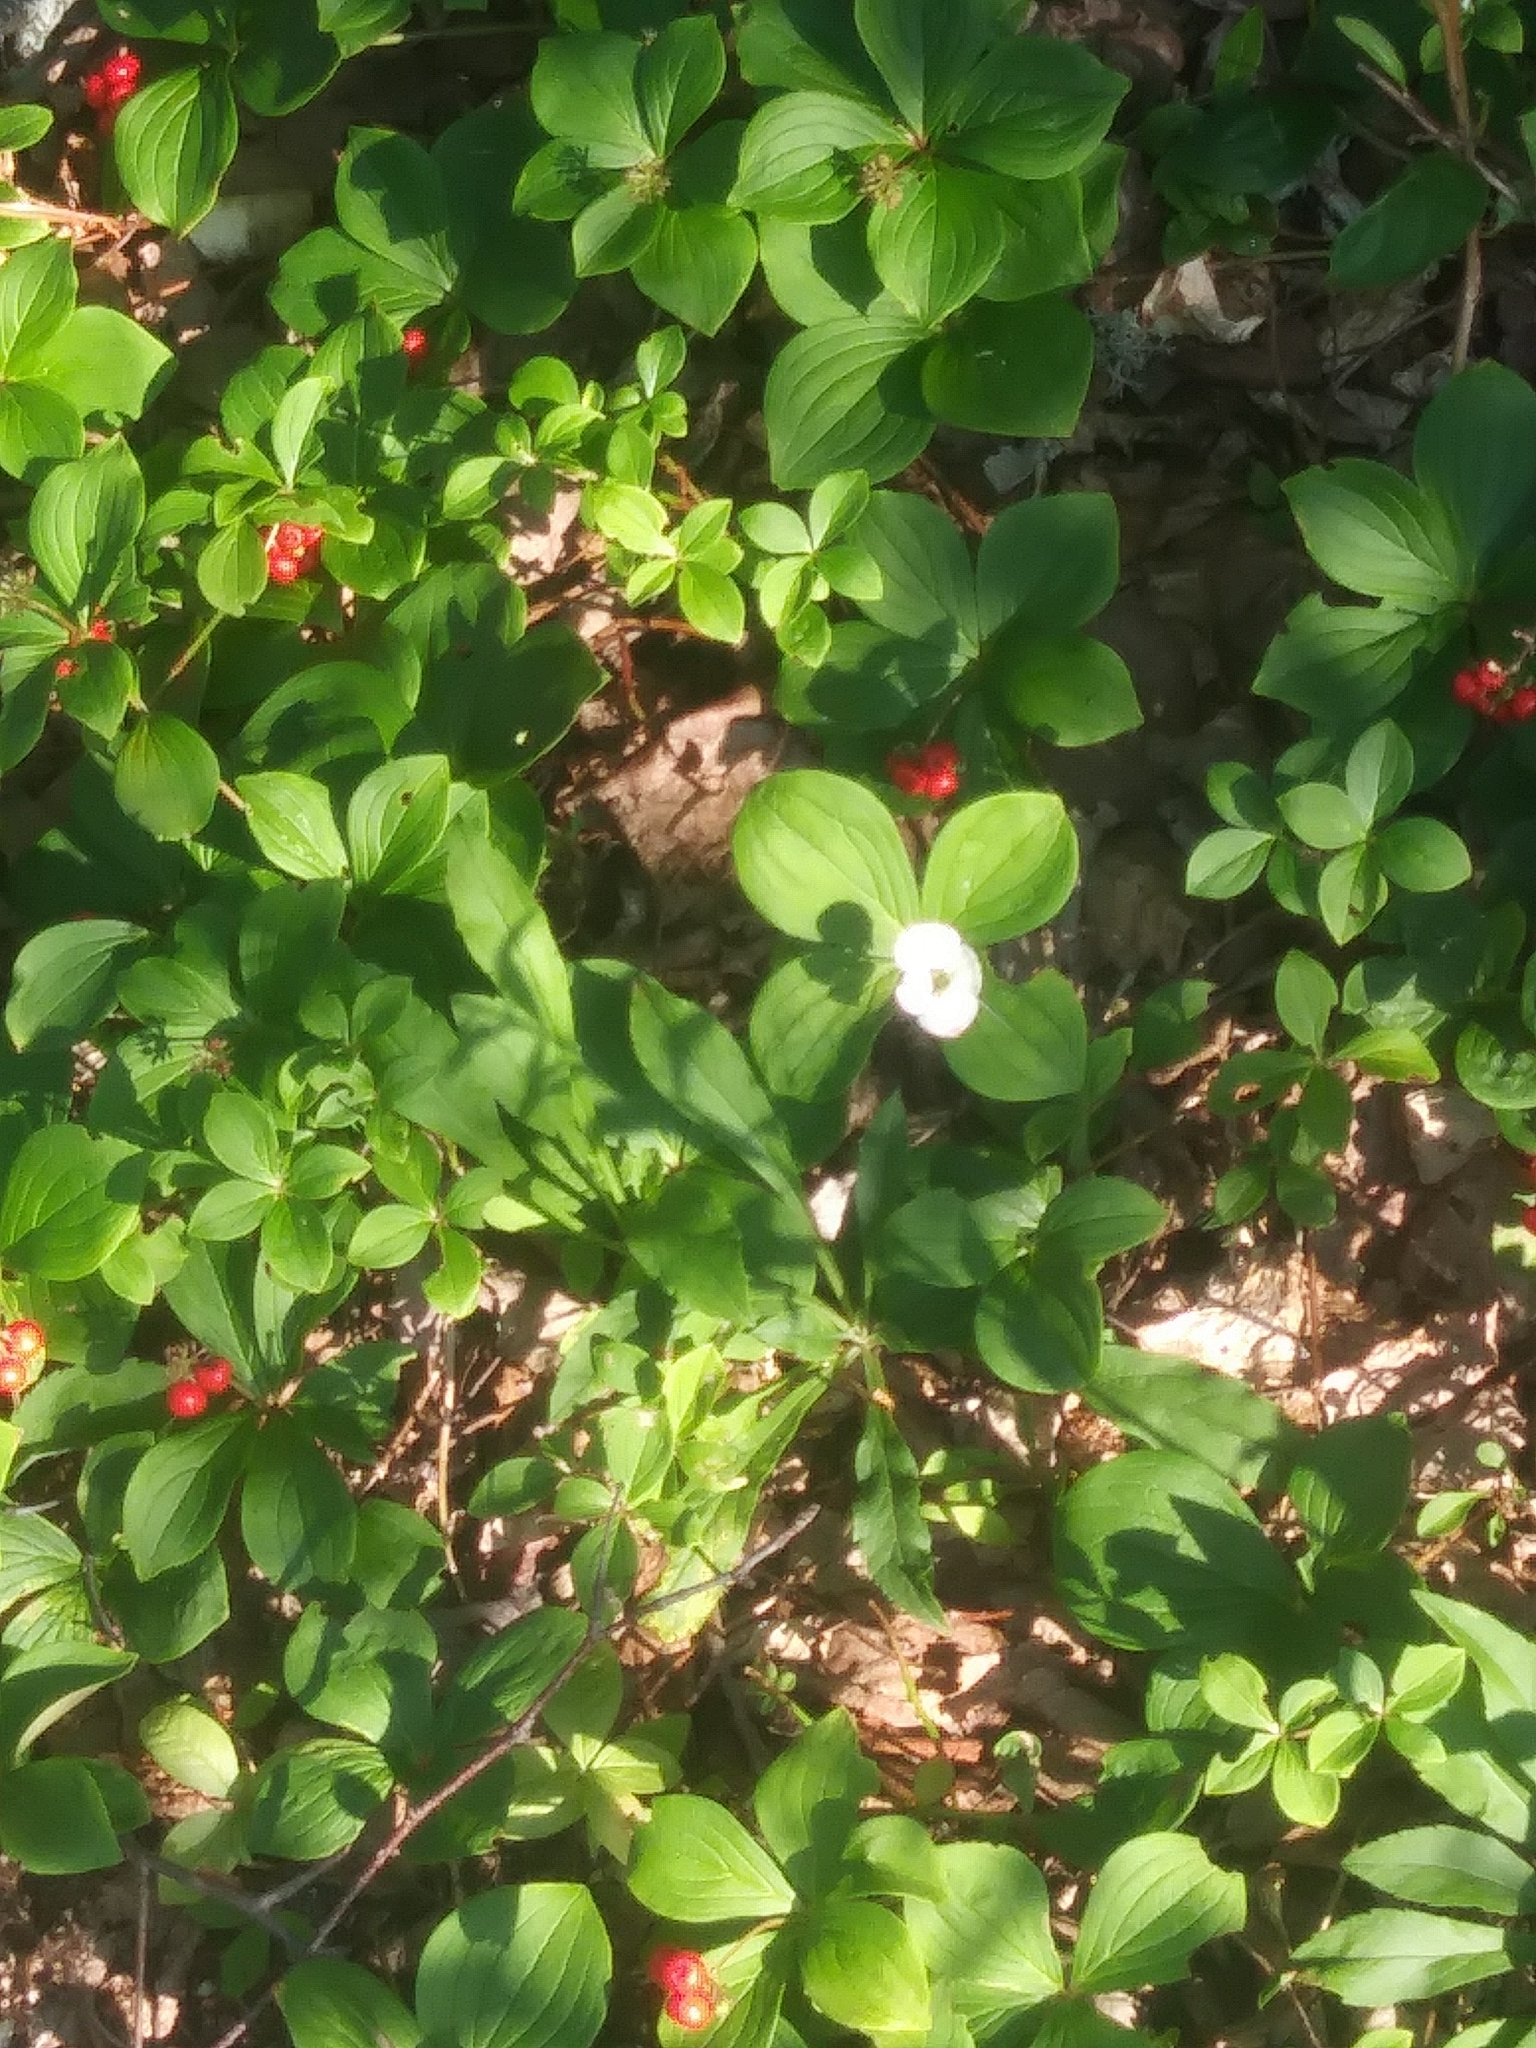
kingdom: Plantae
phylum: Tracheophyta
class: Magnoliopsida
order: Cornales
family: Cornaceae
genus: Cornus
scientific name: Cornus canadensis
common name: Creeping dogwood
